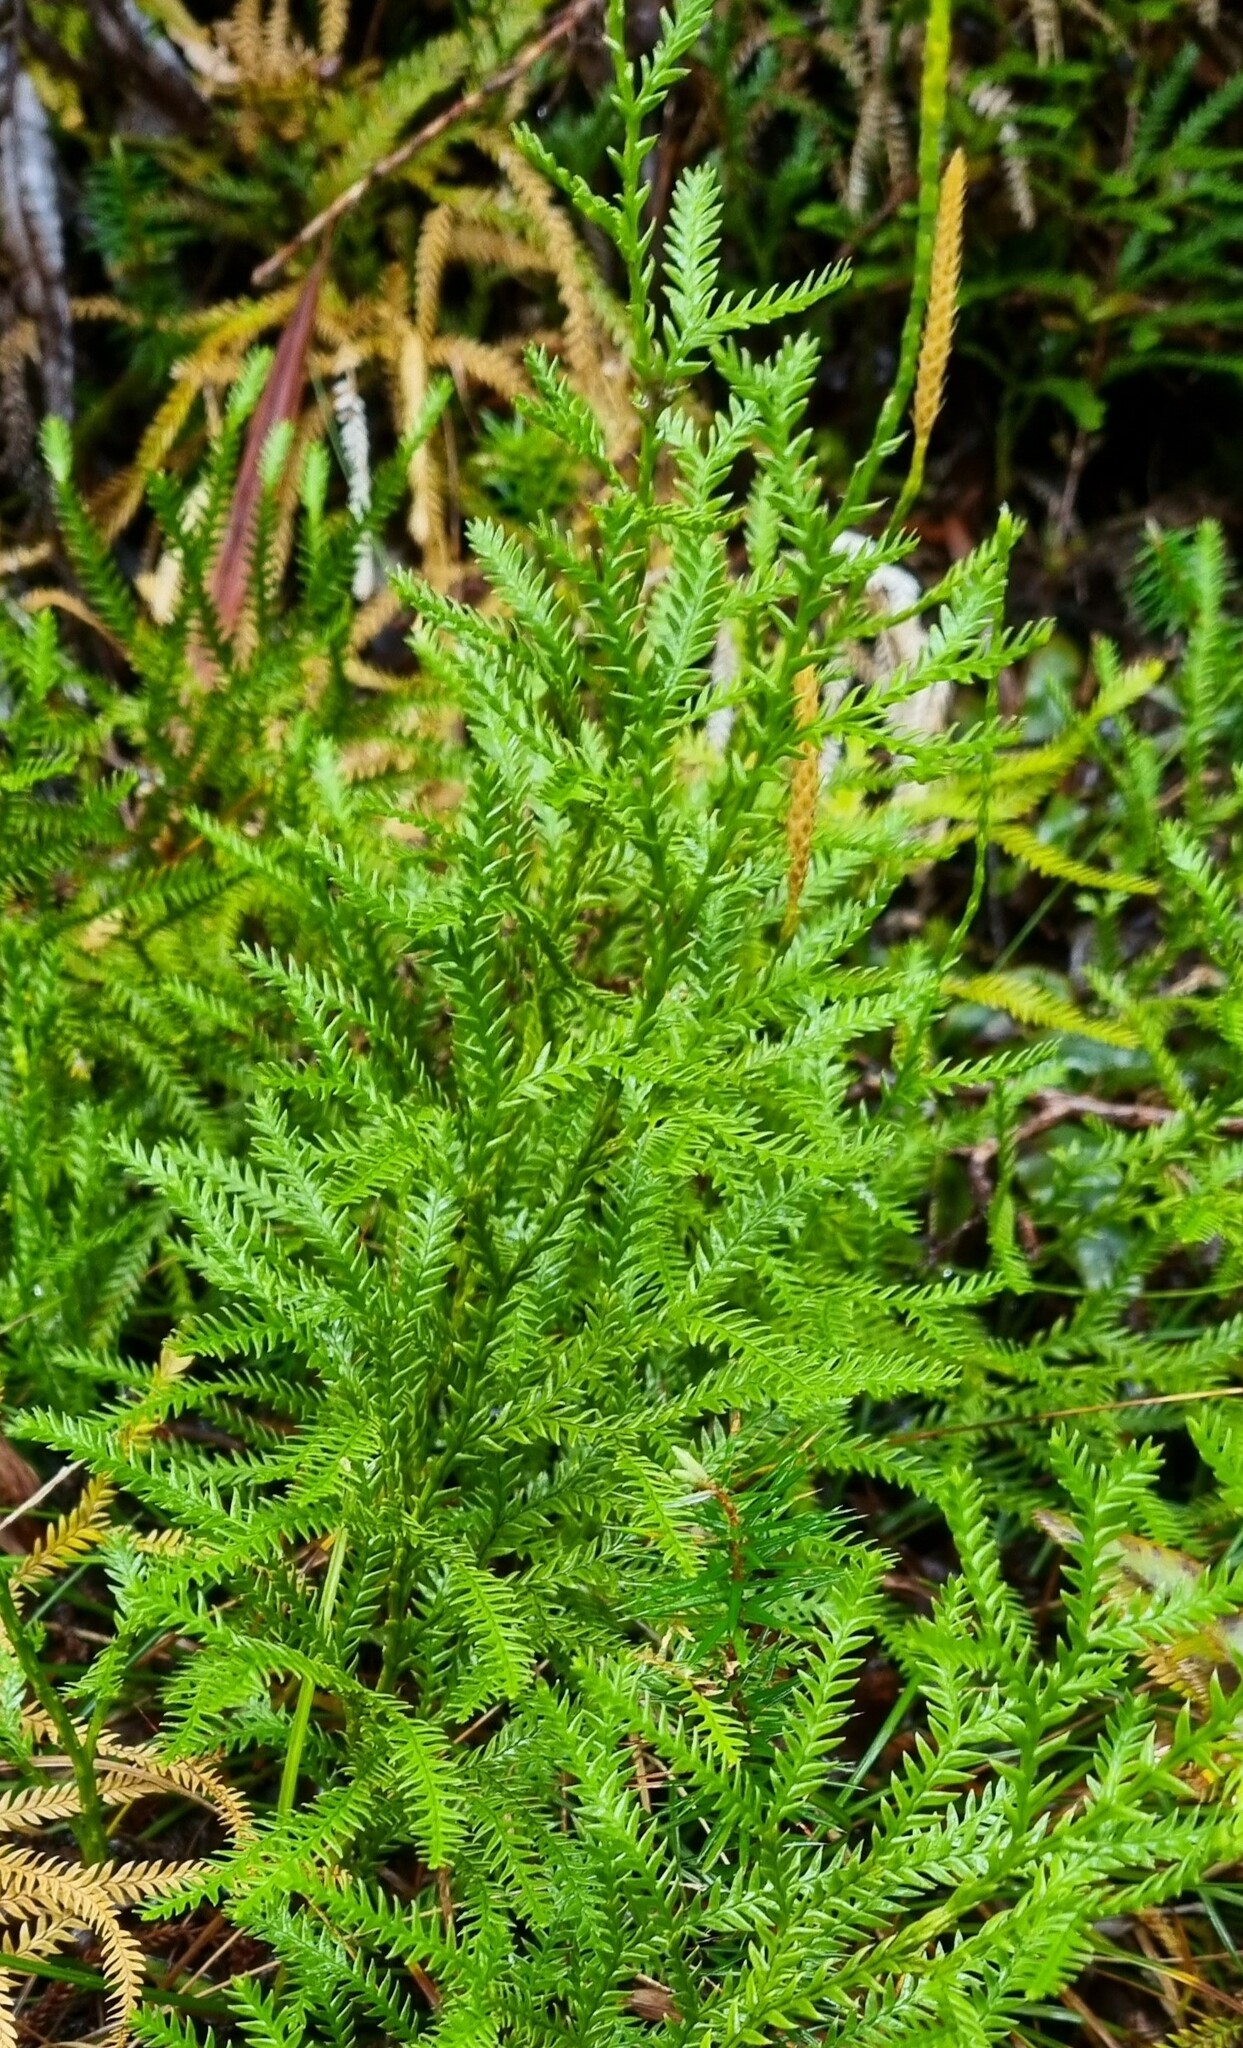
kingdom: Plantae
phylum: Tracheophyta
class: Lycopodiopsida
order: Lycopodiales
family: Lycopodiaceae
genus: Diphasium
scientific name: Diphasium scariosum
